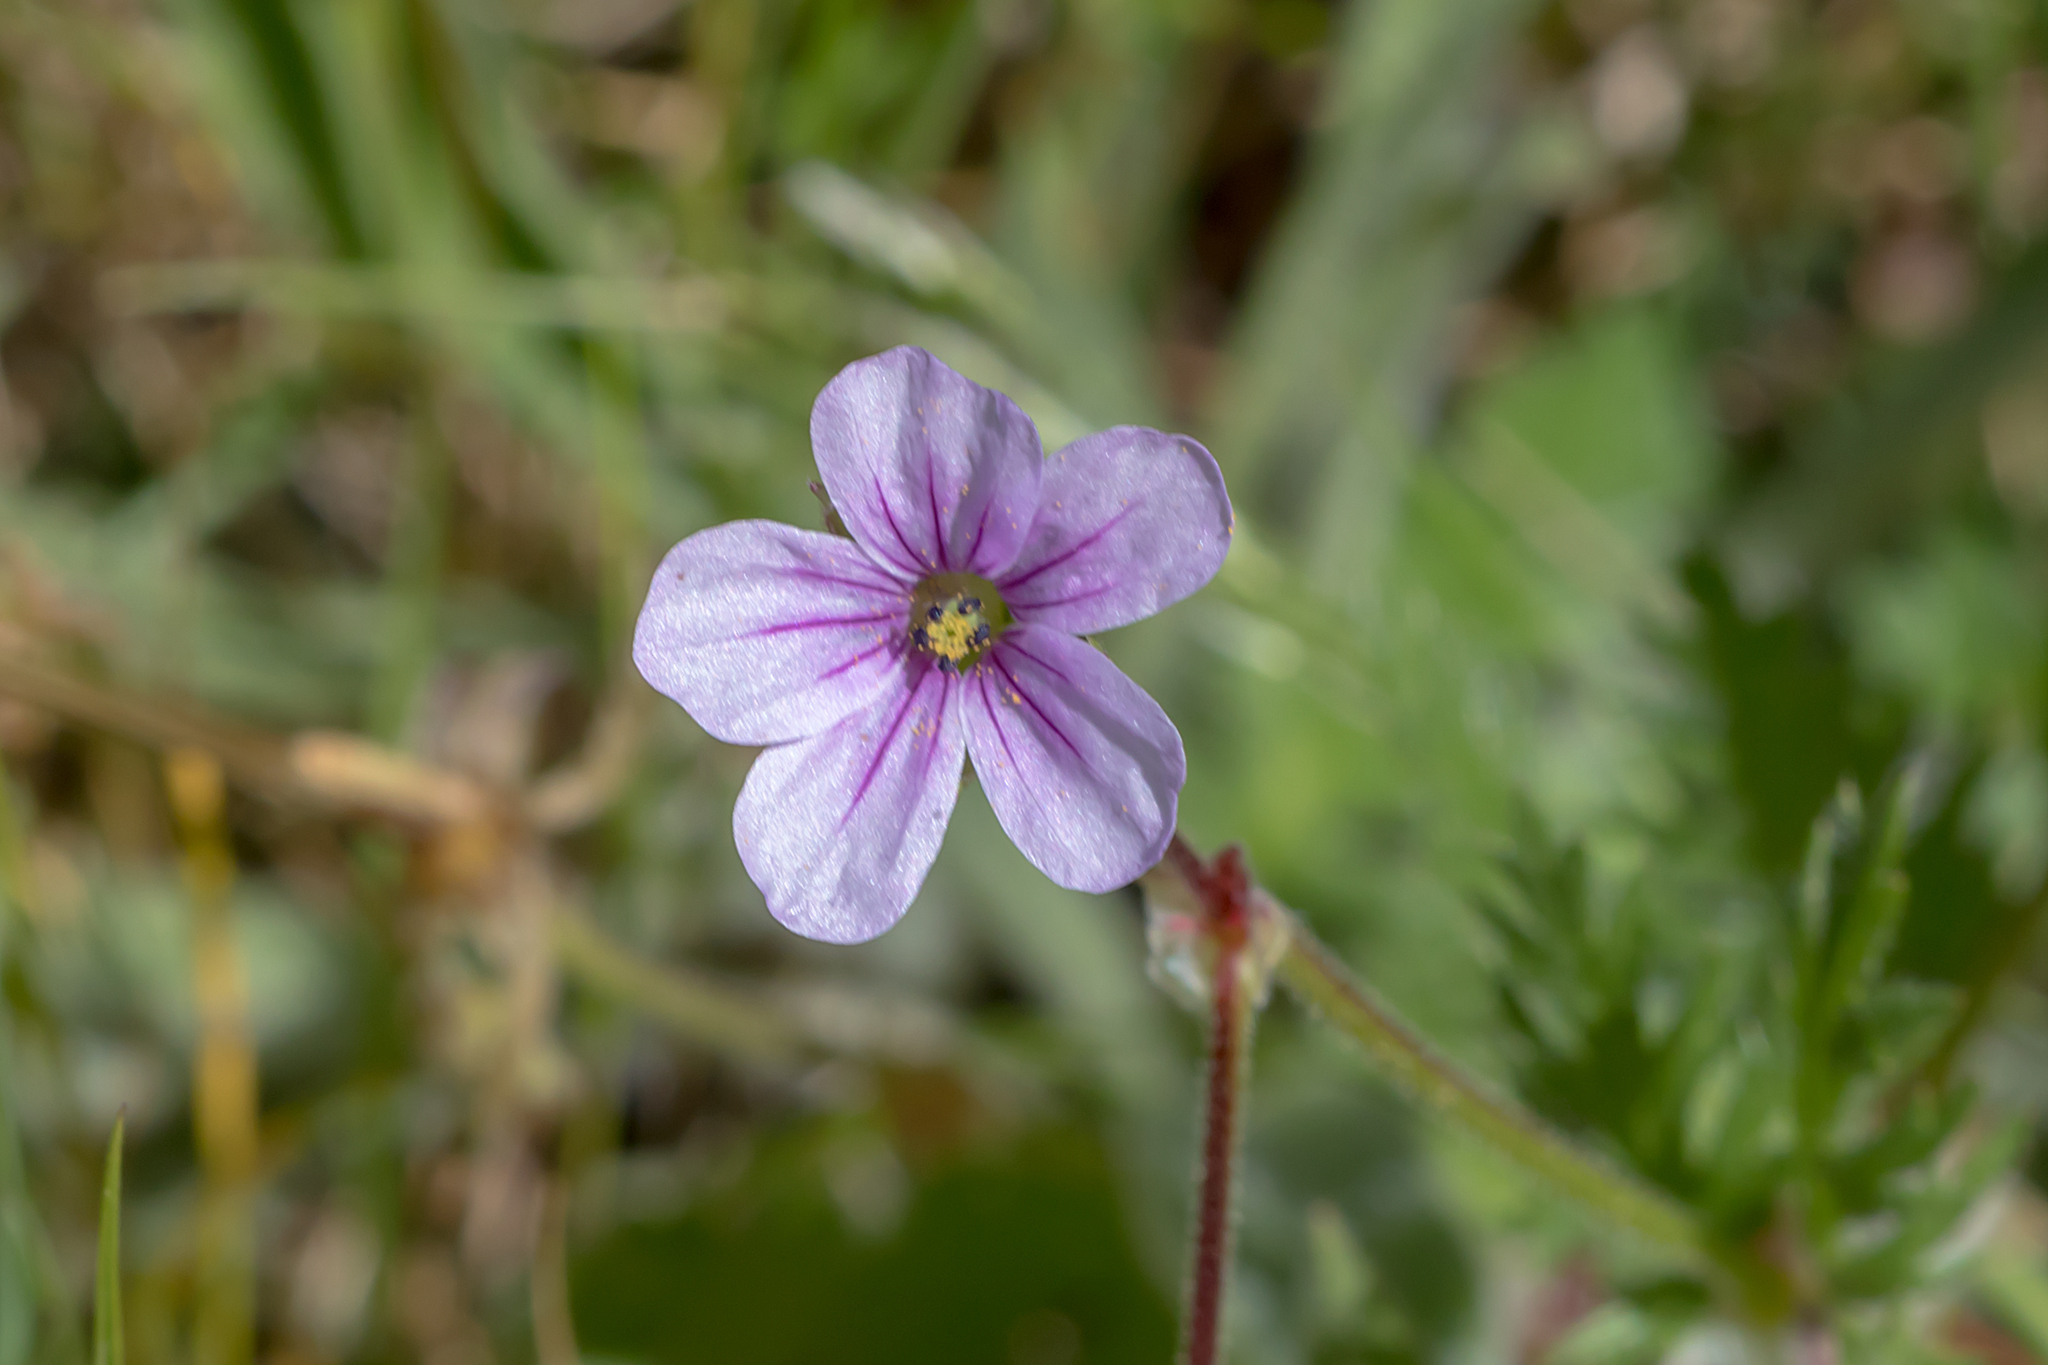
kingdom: Plantae
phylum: Tracheophyta
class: Magnoliopsida
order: Geraniales
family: Geraniaceae
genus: Erodium
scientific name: Erodium botrys
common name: Mediterranean stork's-bill
